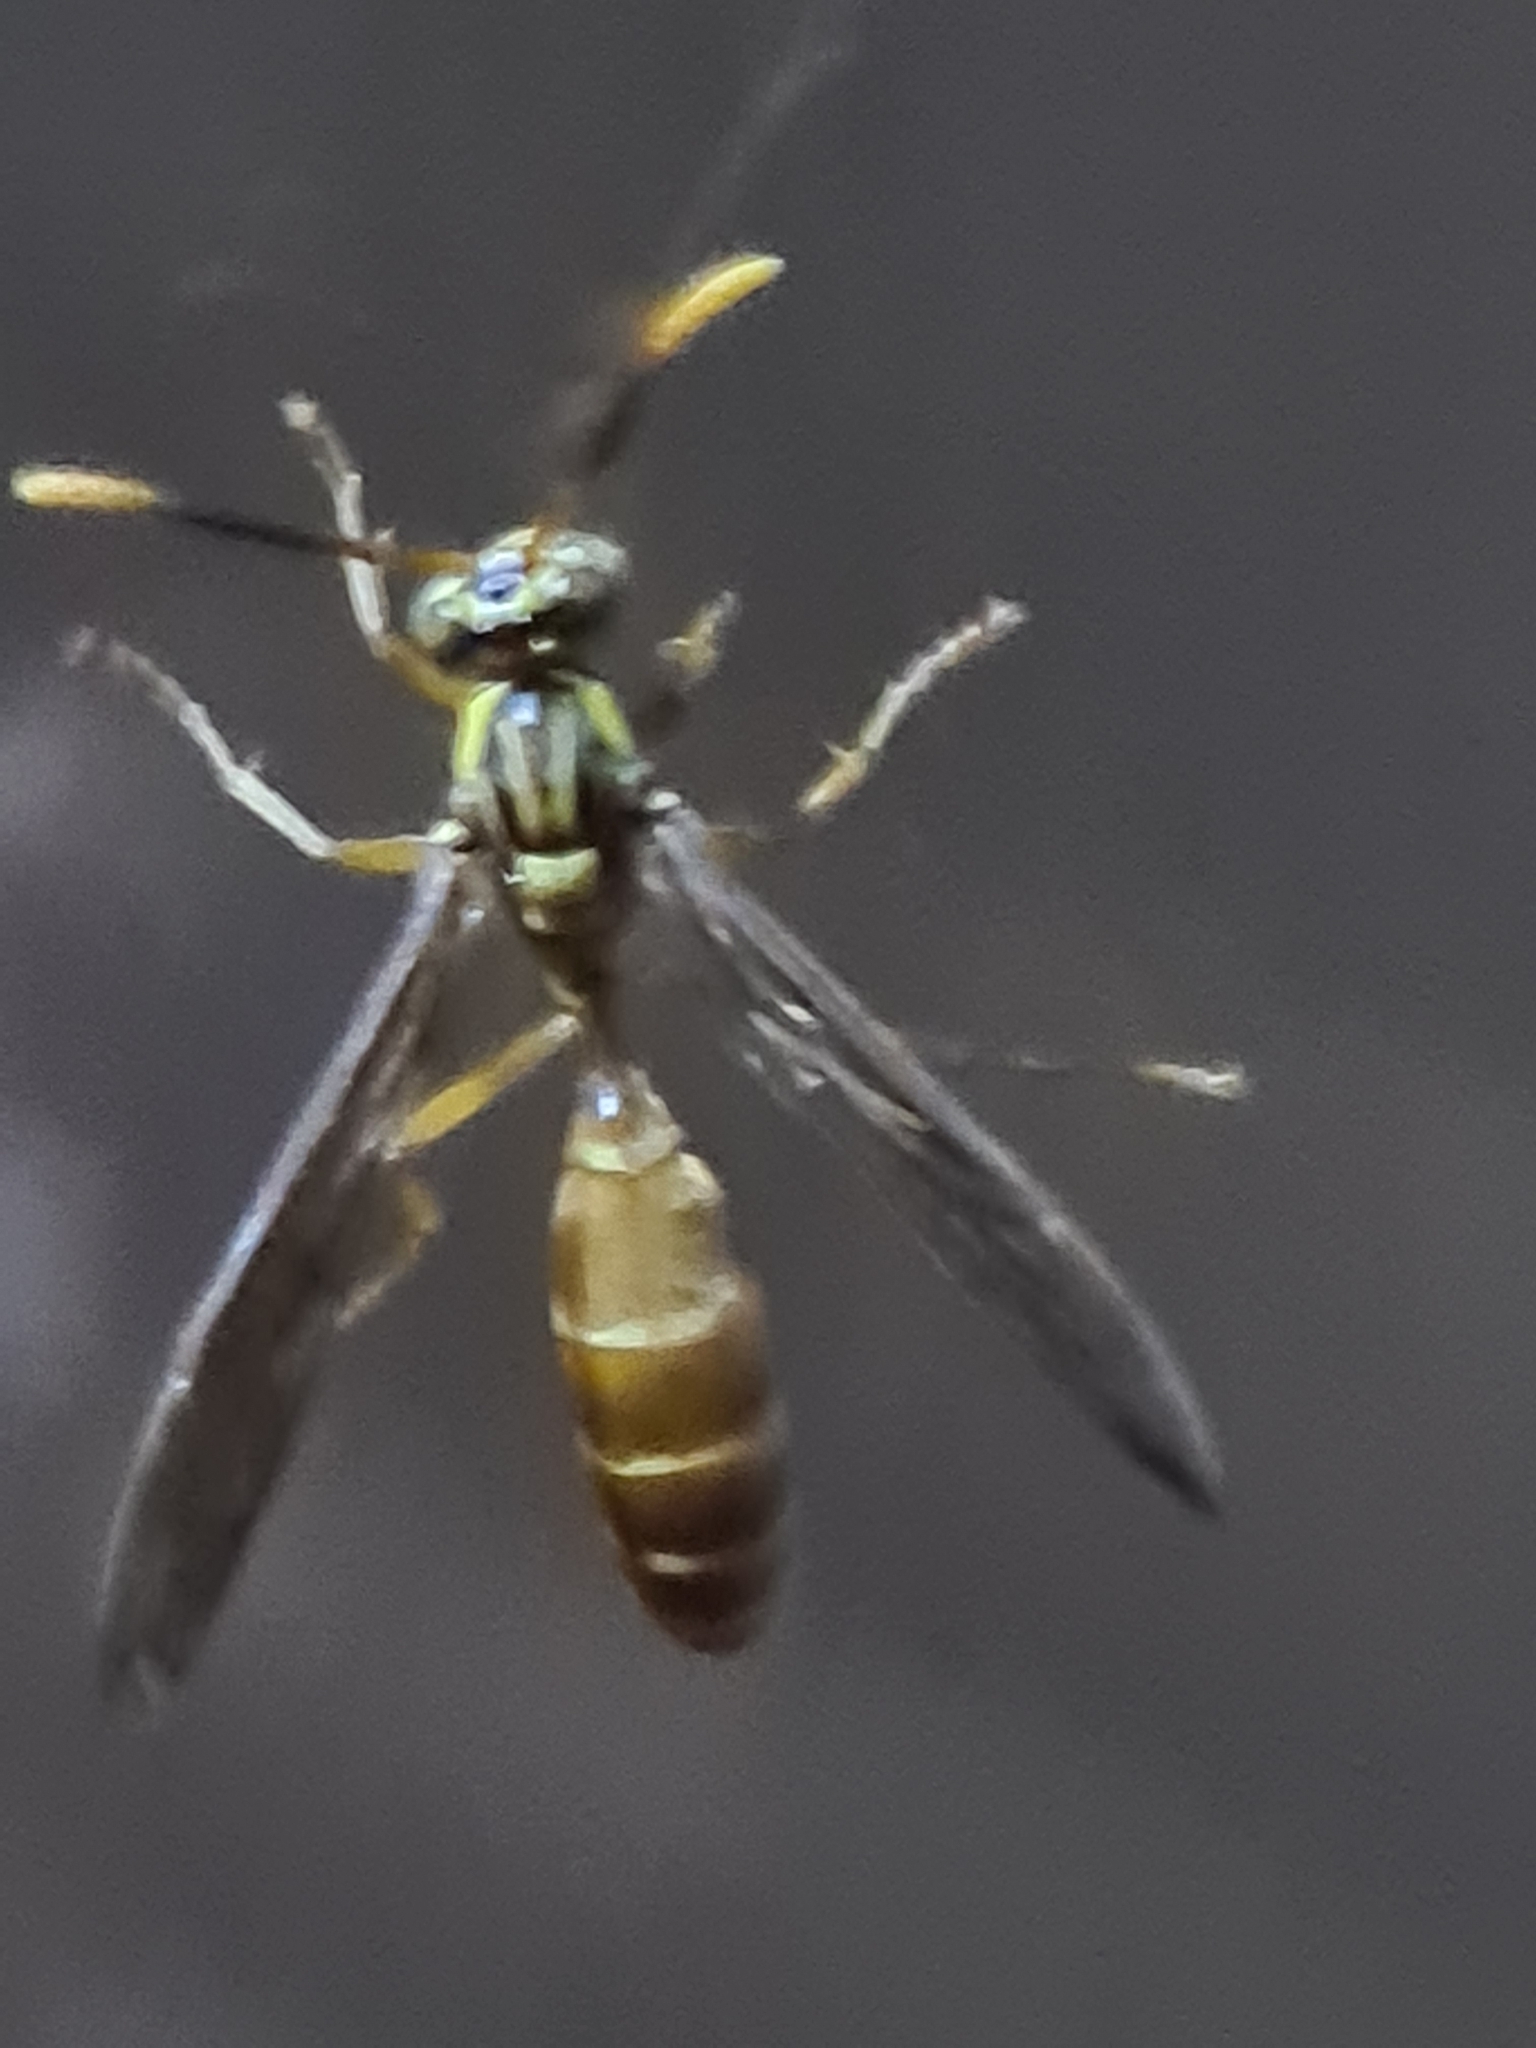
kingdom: Animalia
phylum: Arthropoda
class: Insecta
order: Hymenoptera
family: Vespidae
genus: Apoica
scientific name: Apoica strigata
